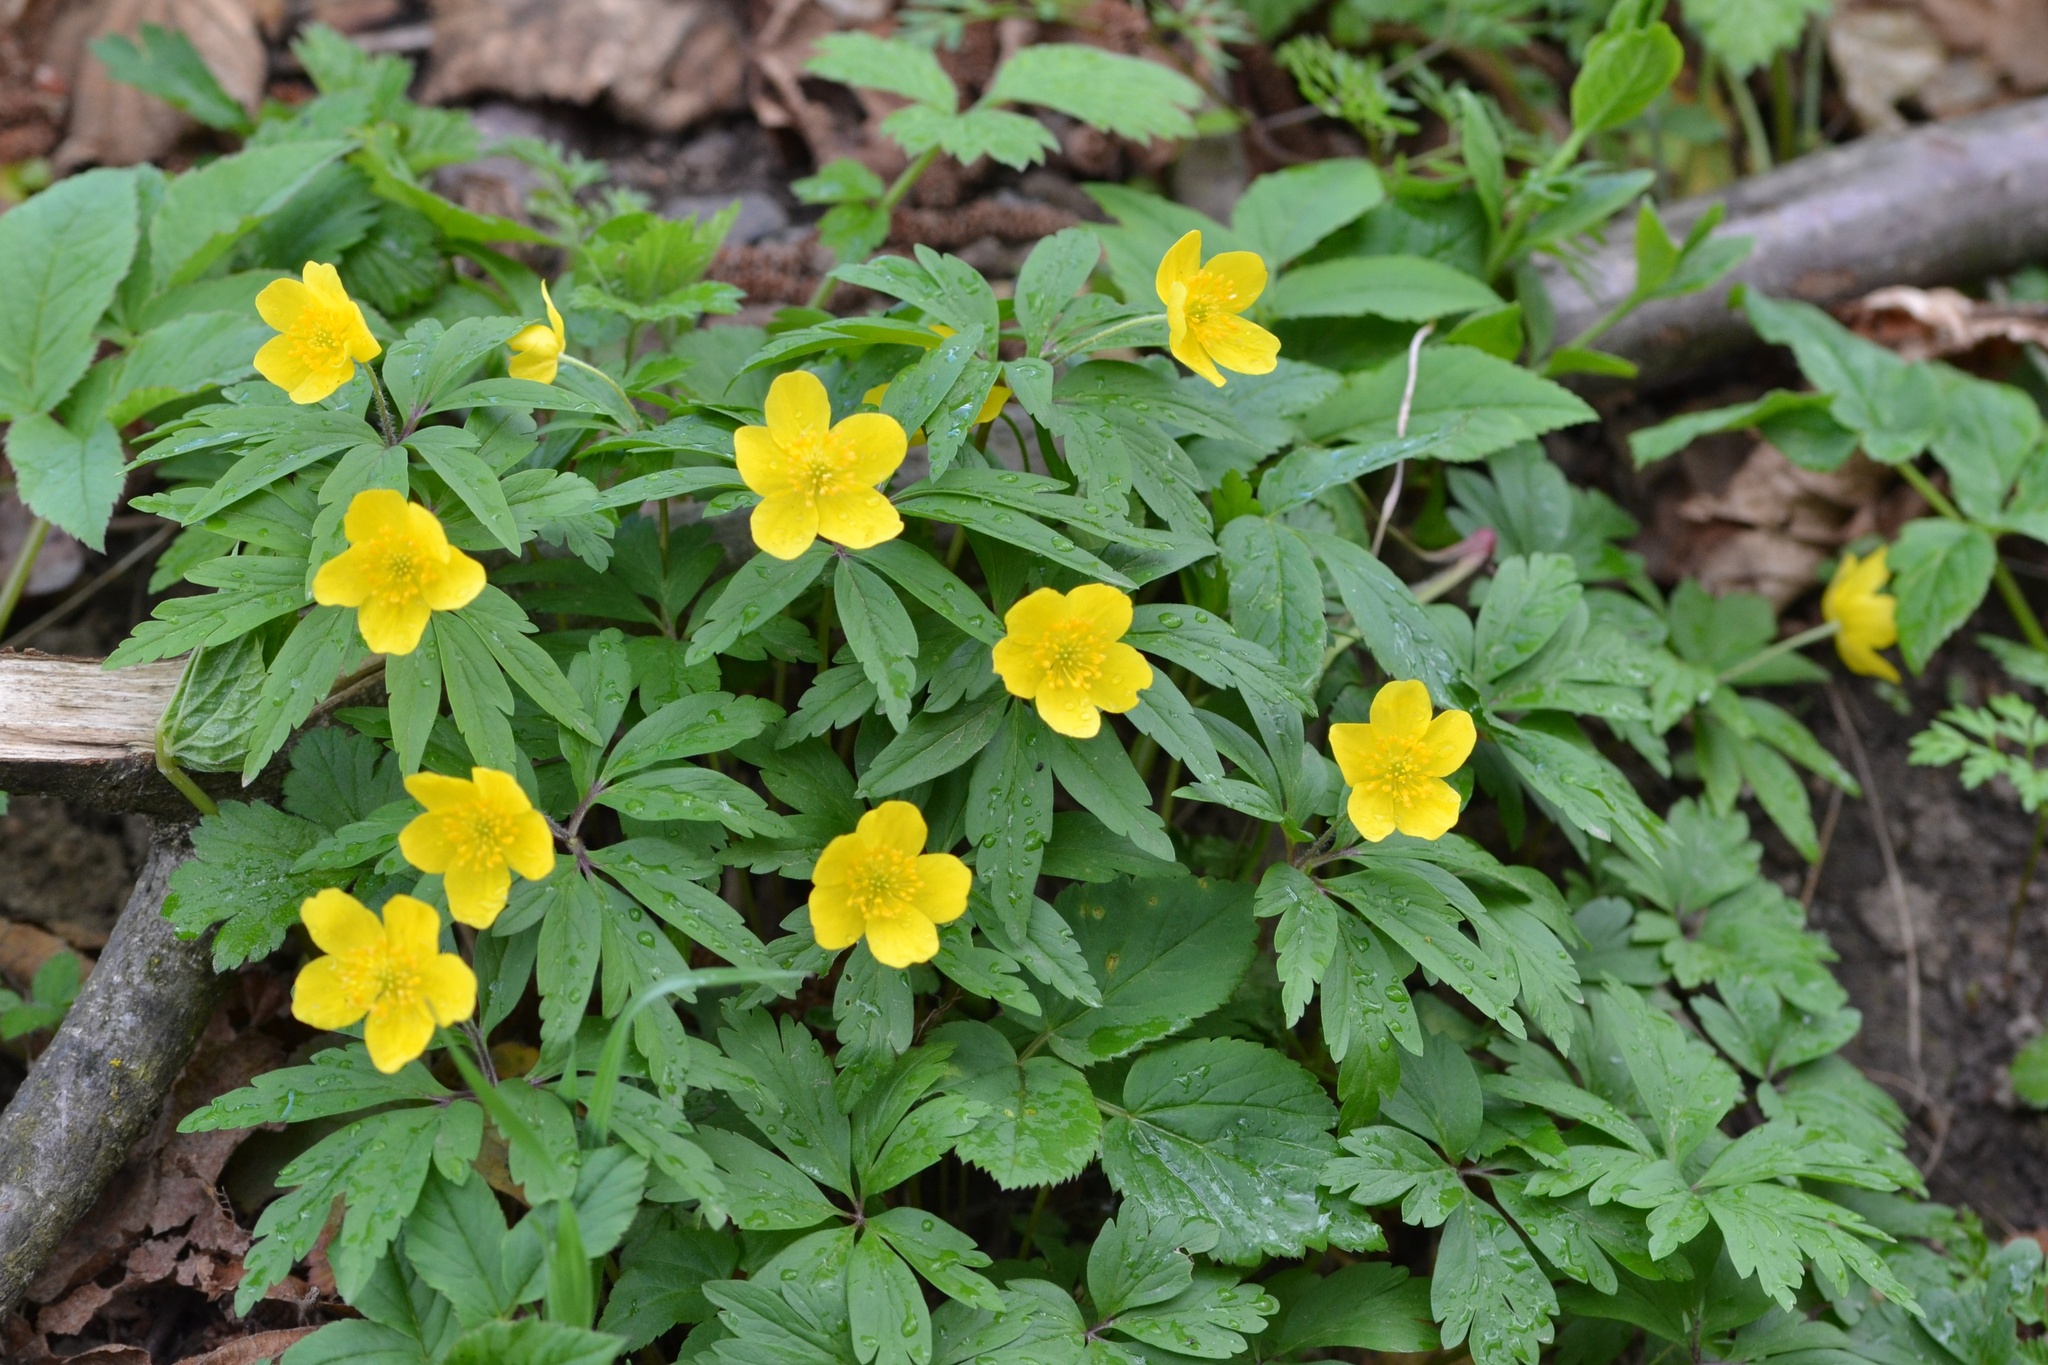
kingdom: Plantae
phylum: Tracheophyta
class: Magnoliopsida
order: Ranunculales
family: Ranunculaceae
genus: Anemone
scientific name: Anemone ranunculoides
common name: Yellow anemone
